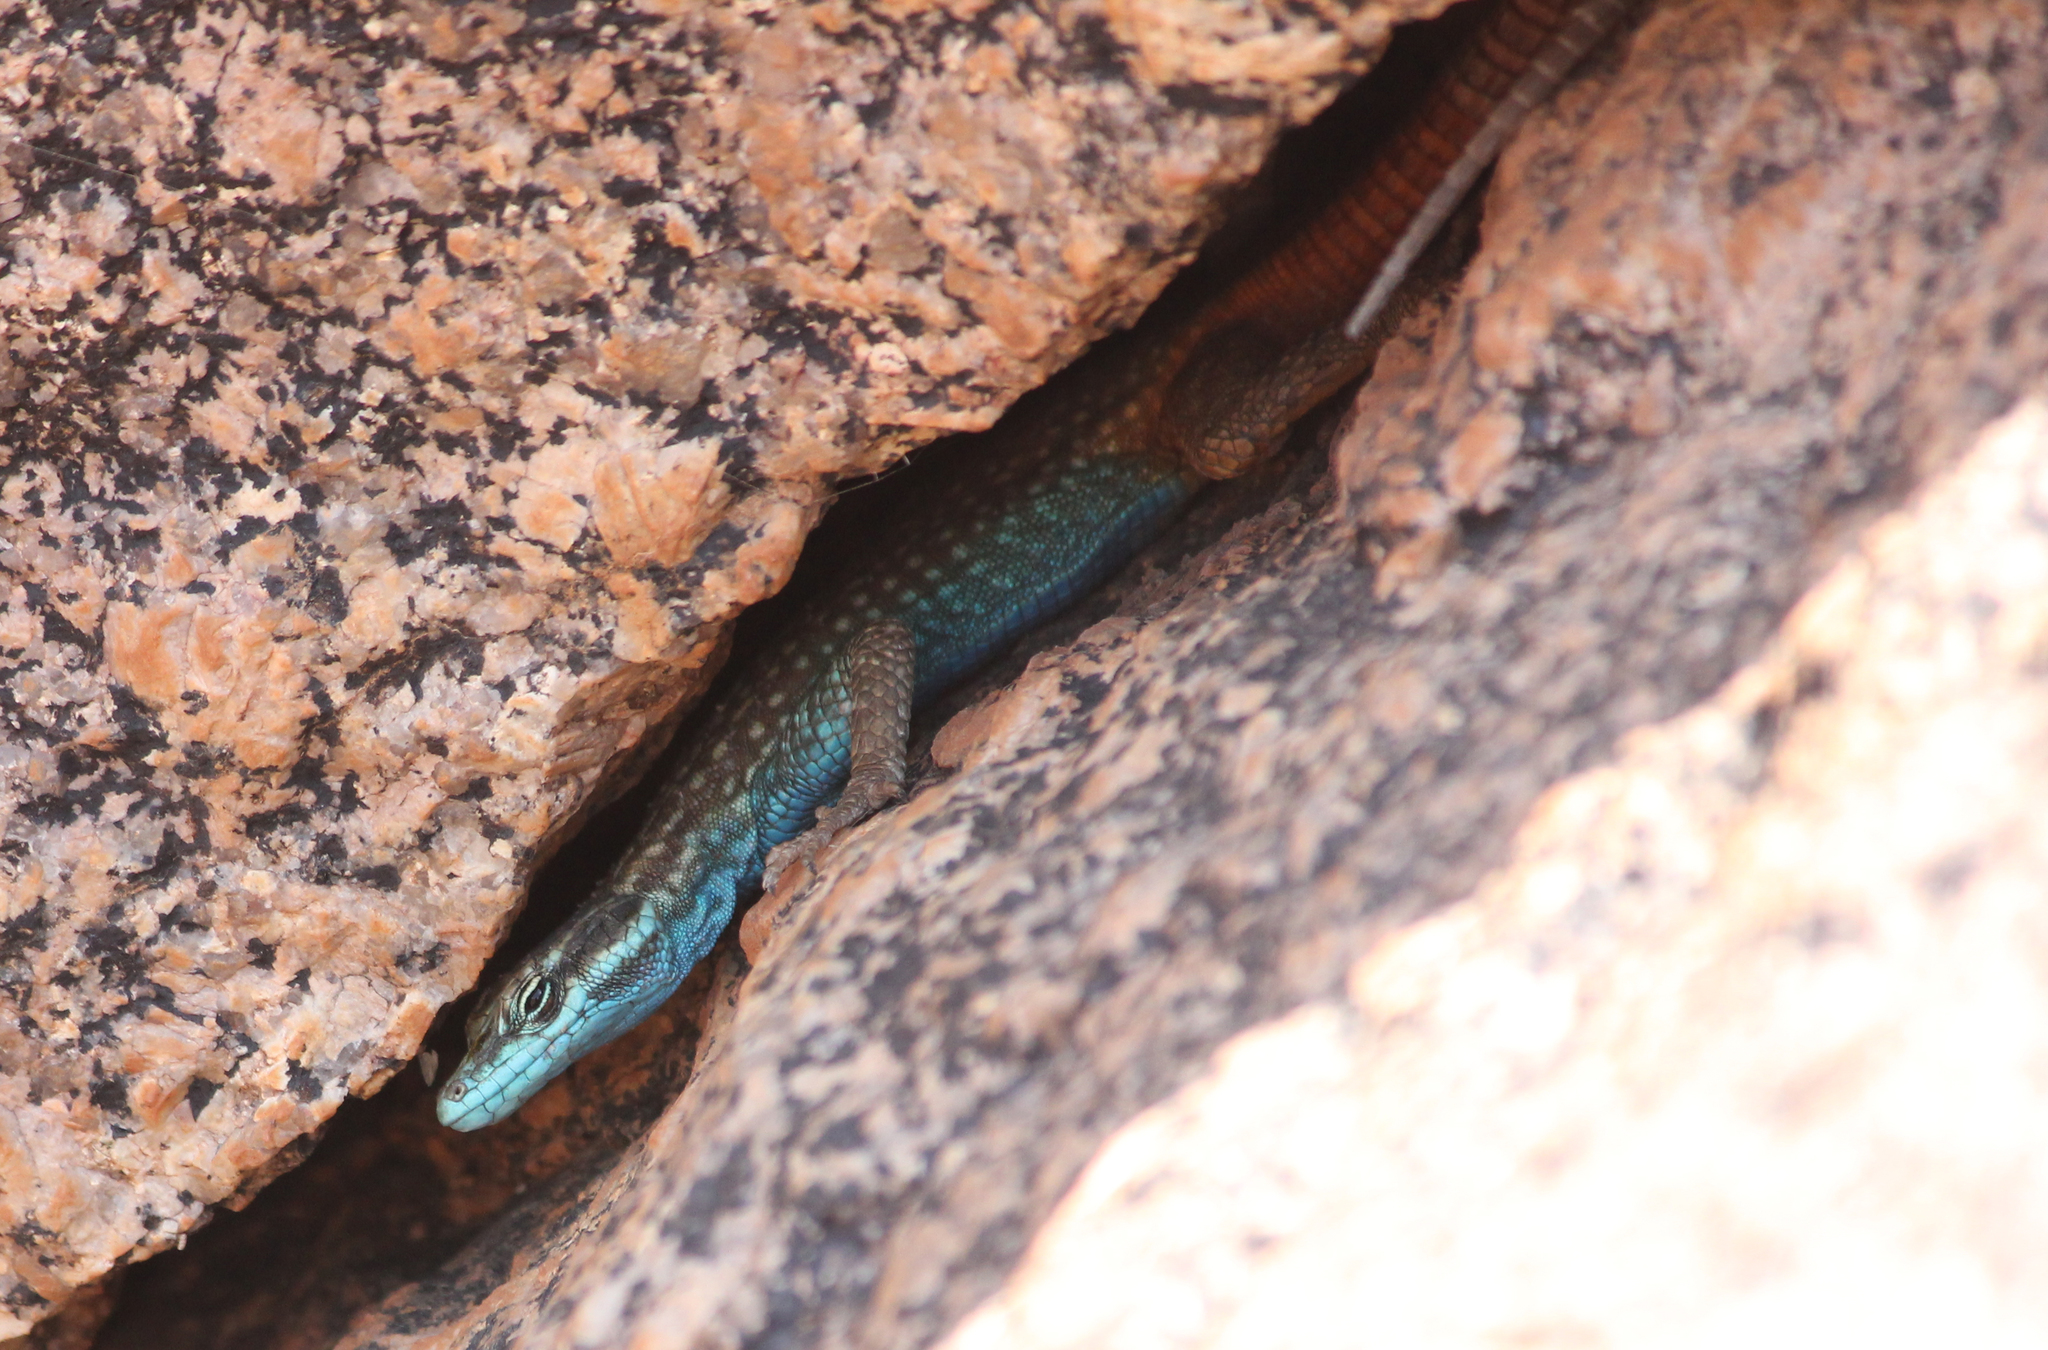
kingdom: Animalia
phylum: Chordata
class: Squamata
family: Cordylidae
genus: Platysaurus
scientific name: Platysaurus attenboroughi
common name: Attenborough’s flat lizard
